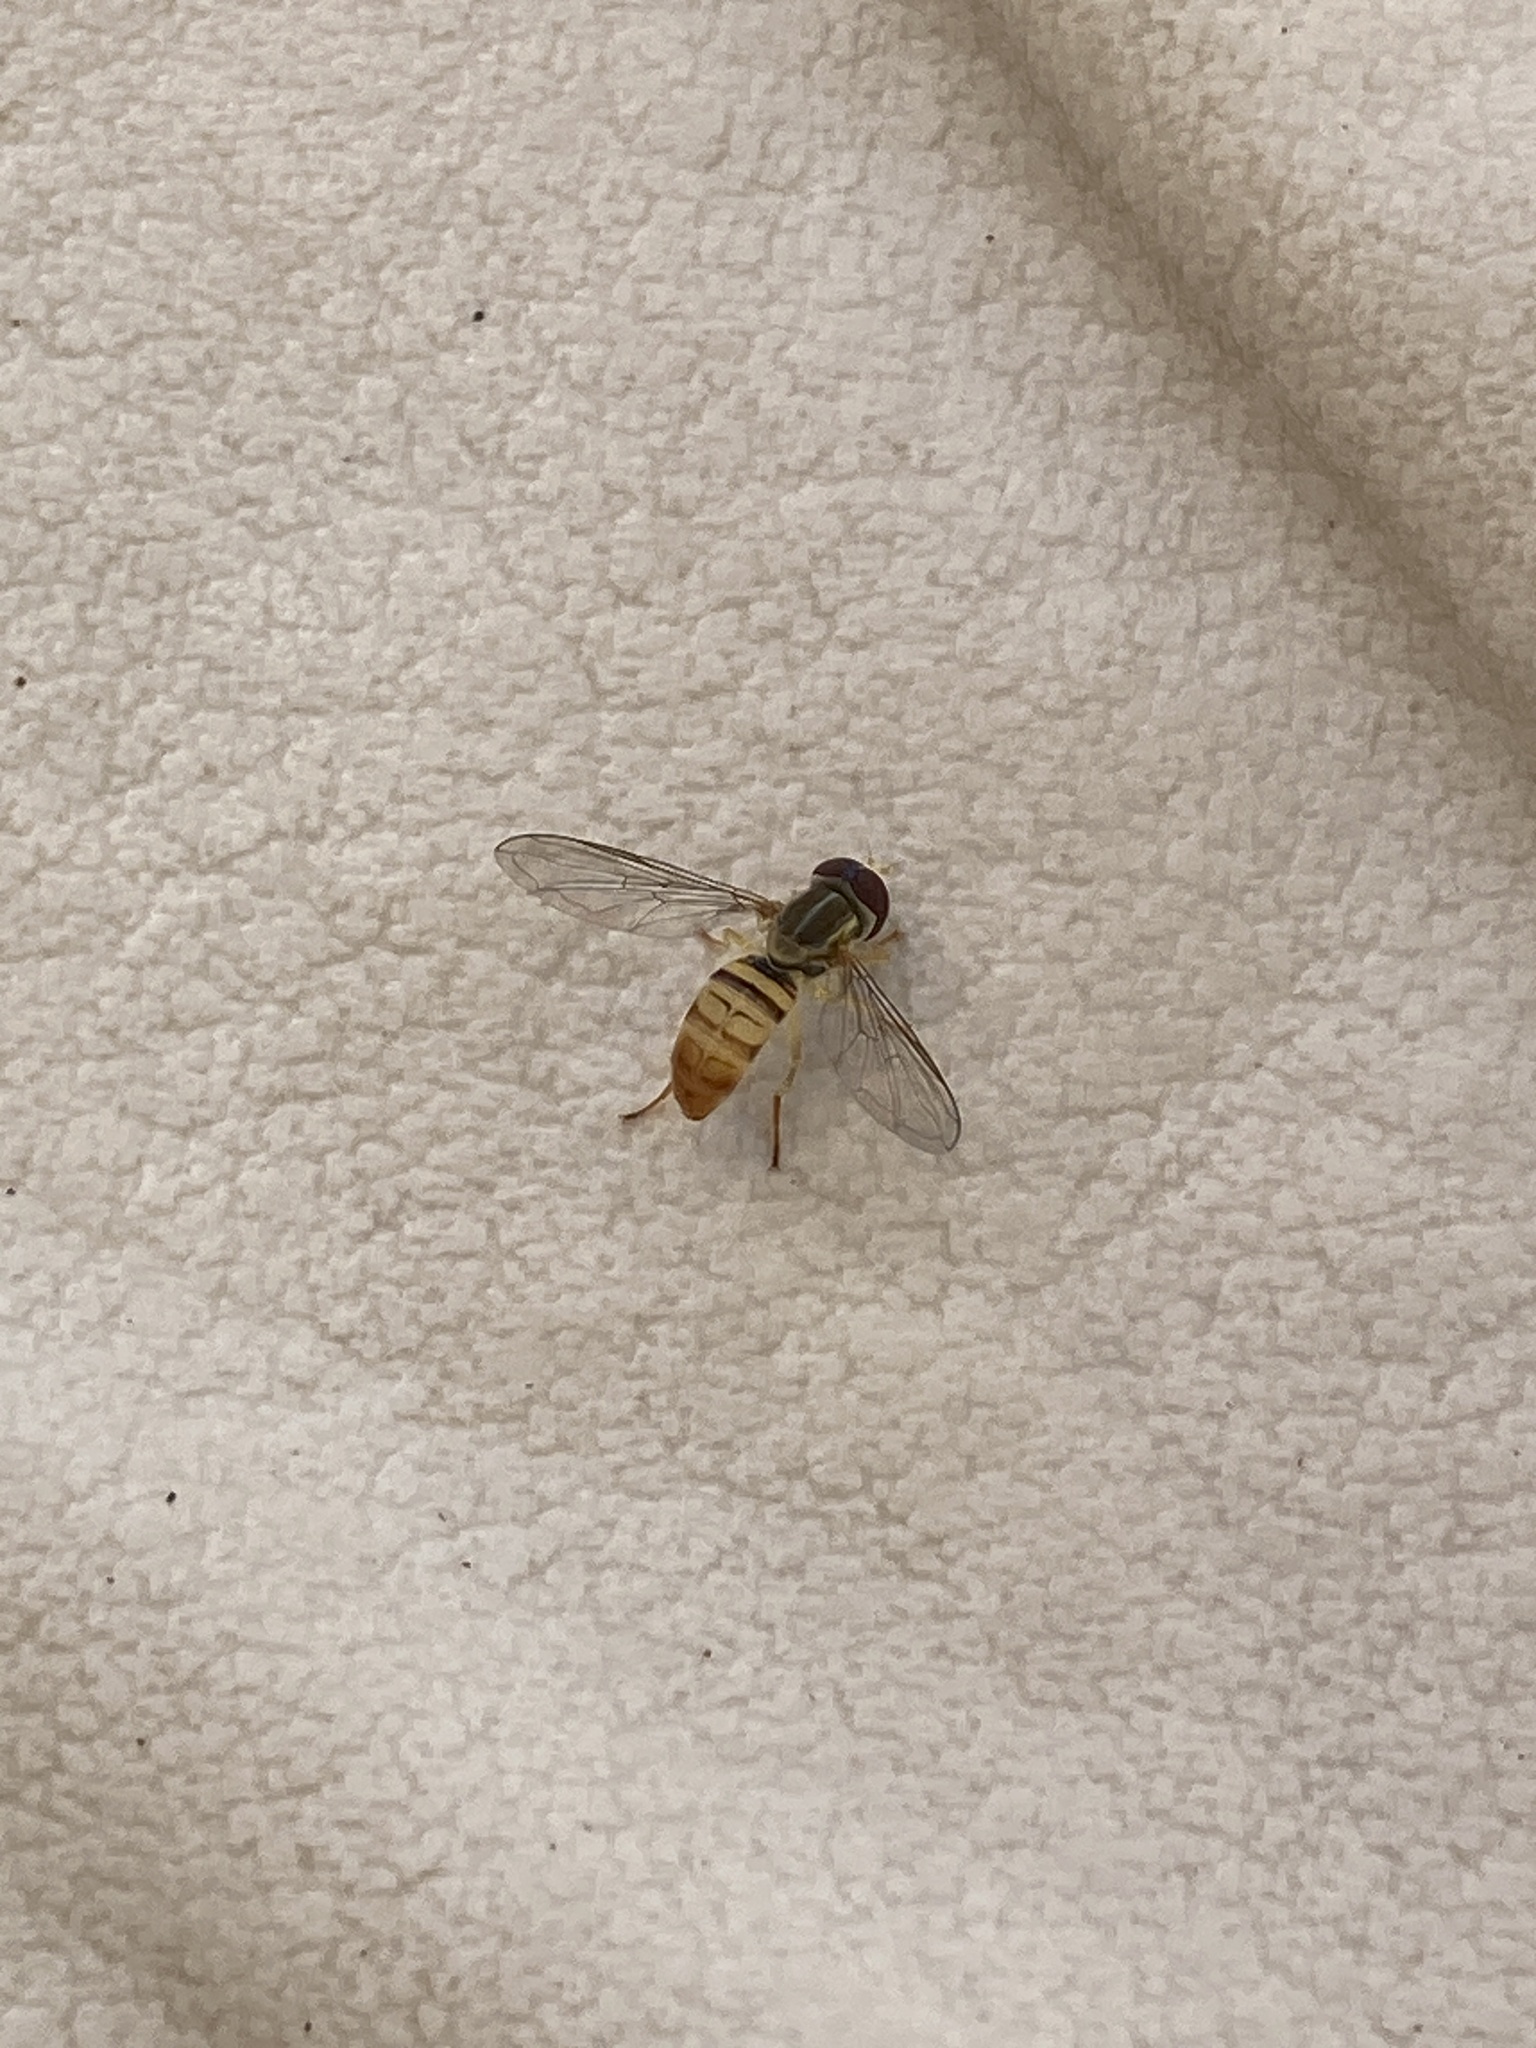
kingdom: Animalia
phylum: Arthropoda
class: Insecta
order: Diptera
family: Syrphidae
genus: Toxomerus
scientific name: Toxomerus politus
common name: Maize calligrapher
